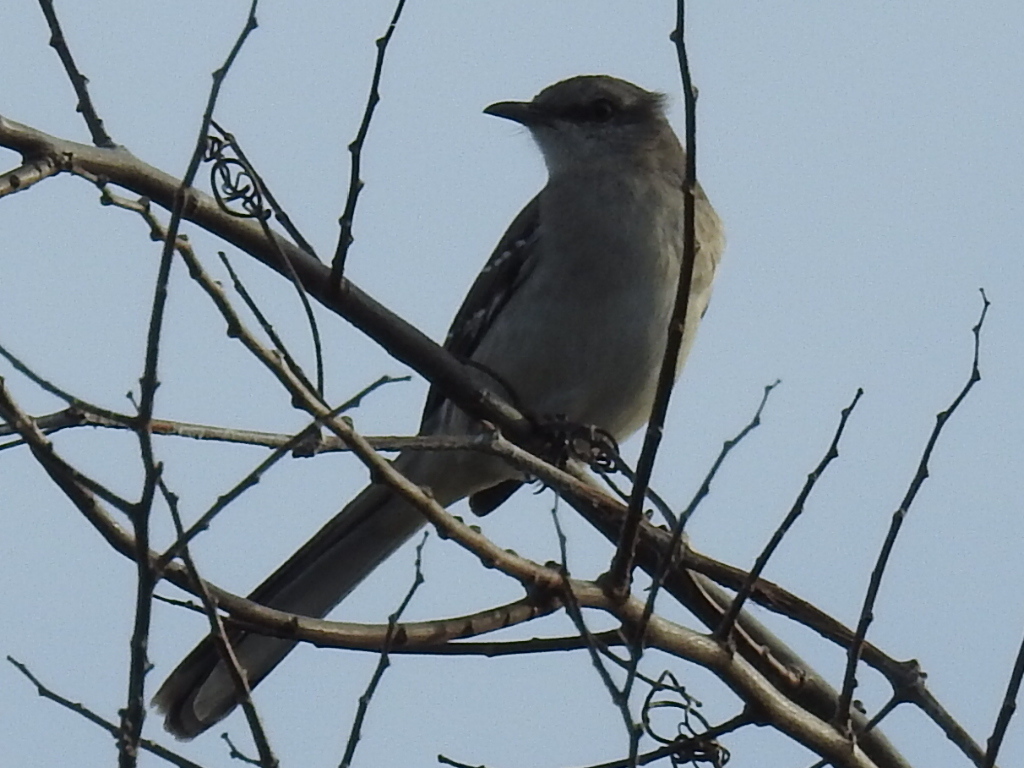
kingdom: Animalia
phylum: Chordata
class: Aves
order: Passeriformes
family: Mimidae
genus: Mimus
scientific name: Mimus polyglottos
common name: Northern mockingbird
